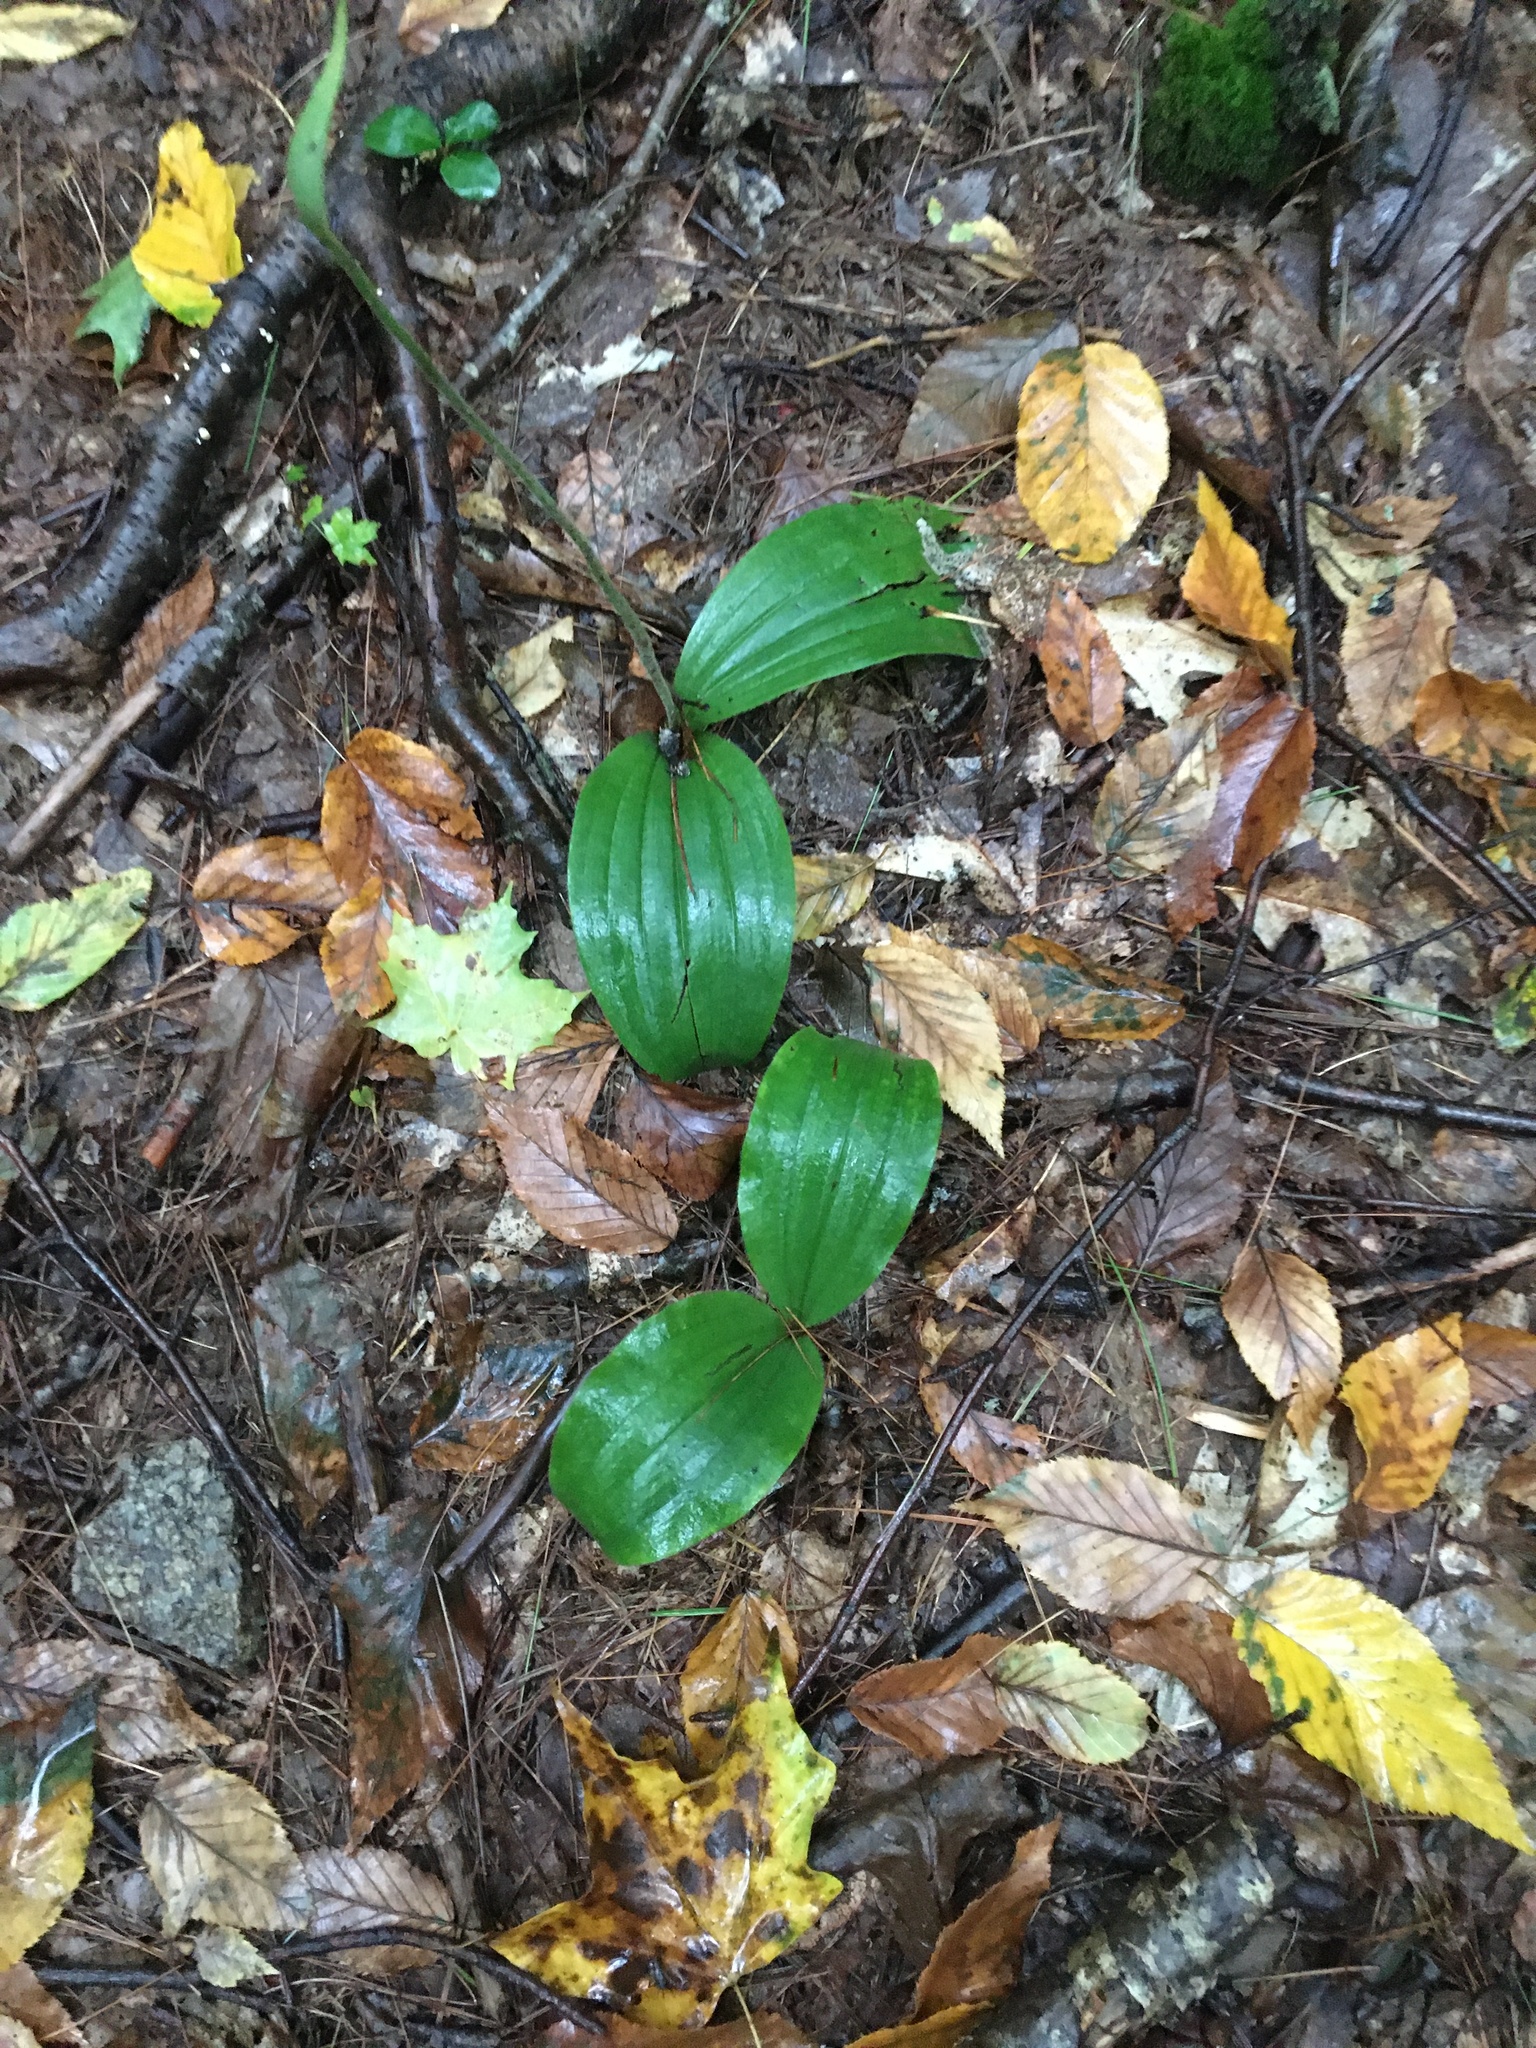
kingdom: Plantae
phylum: Tracheophyta
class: Liliopsida
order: Asparagales
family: Orchidaceae
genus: Cypripedium
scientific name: Cypripedium acaule
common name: Pink lady's-slipper
